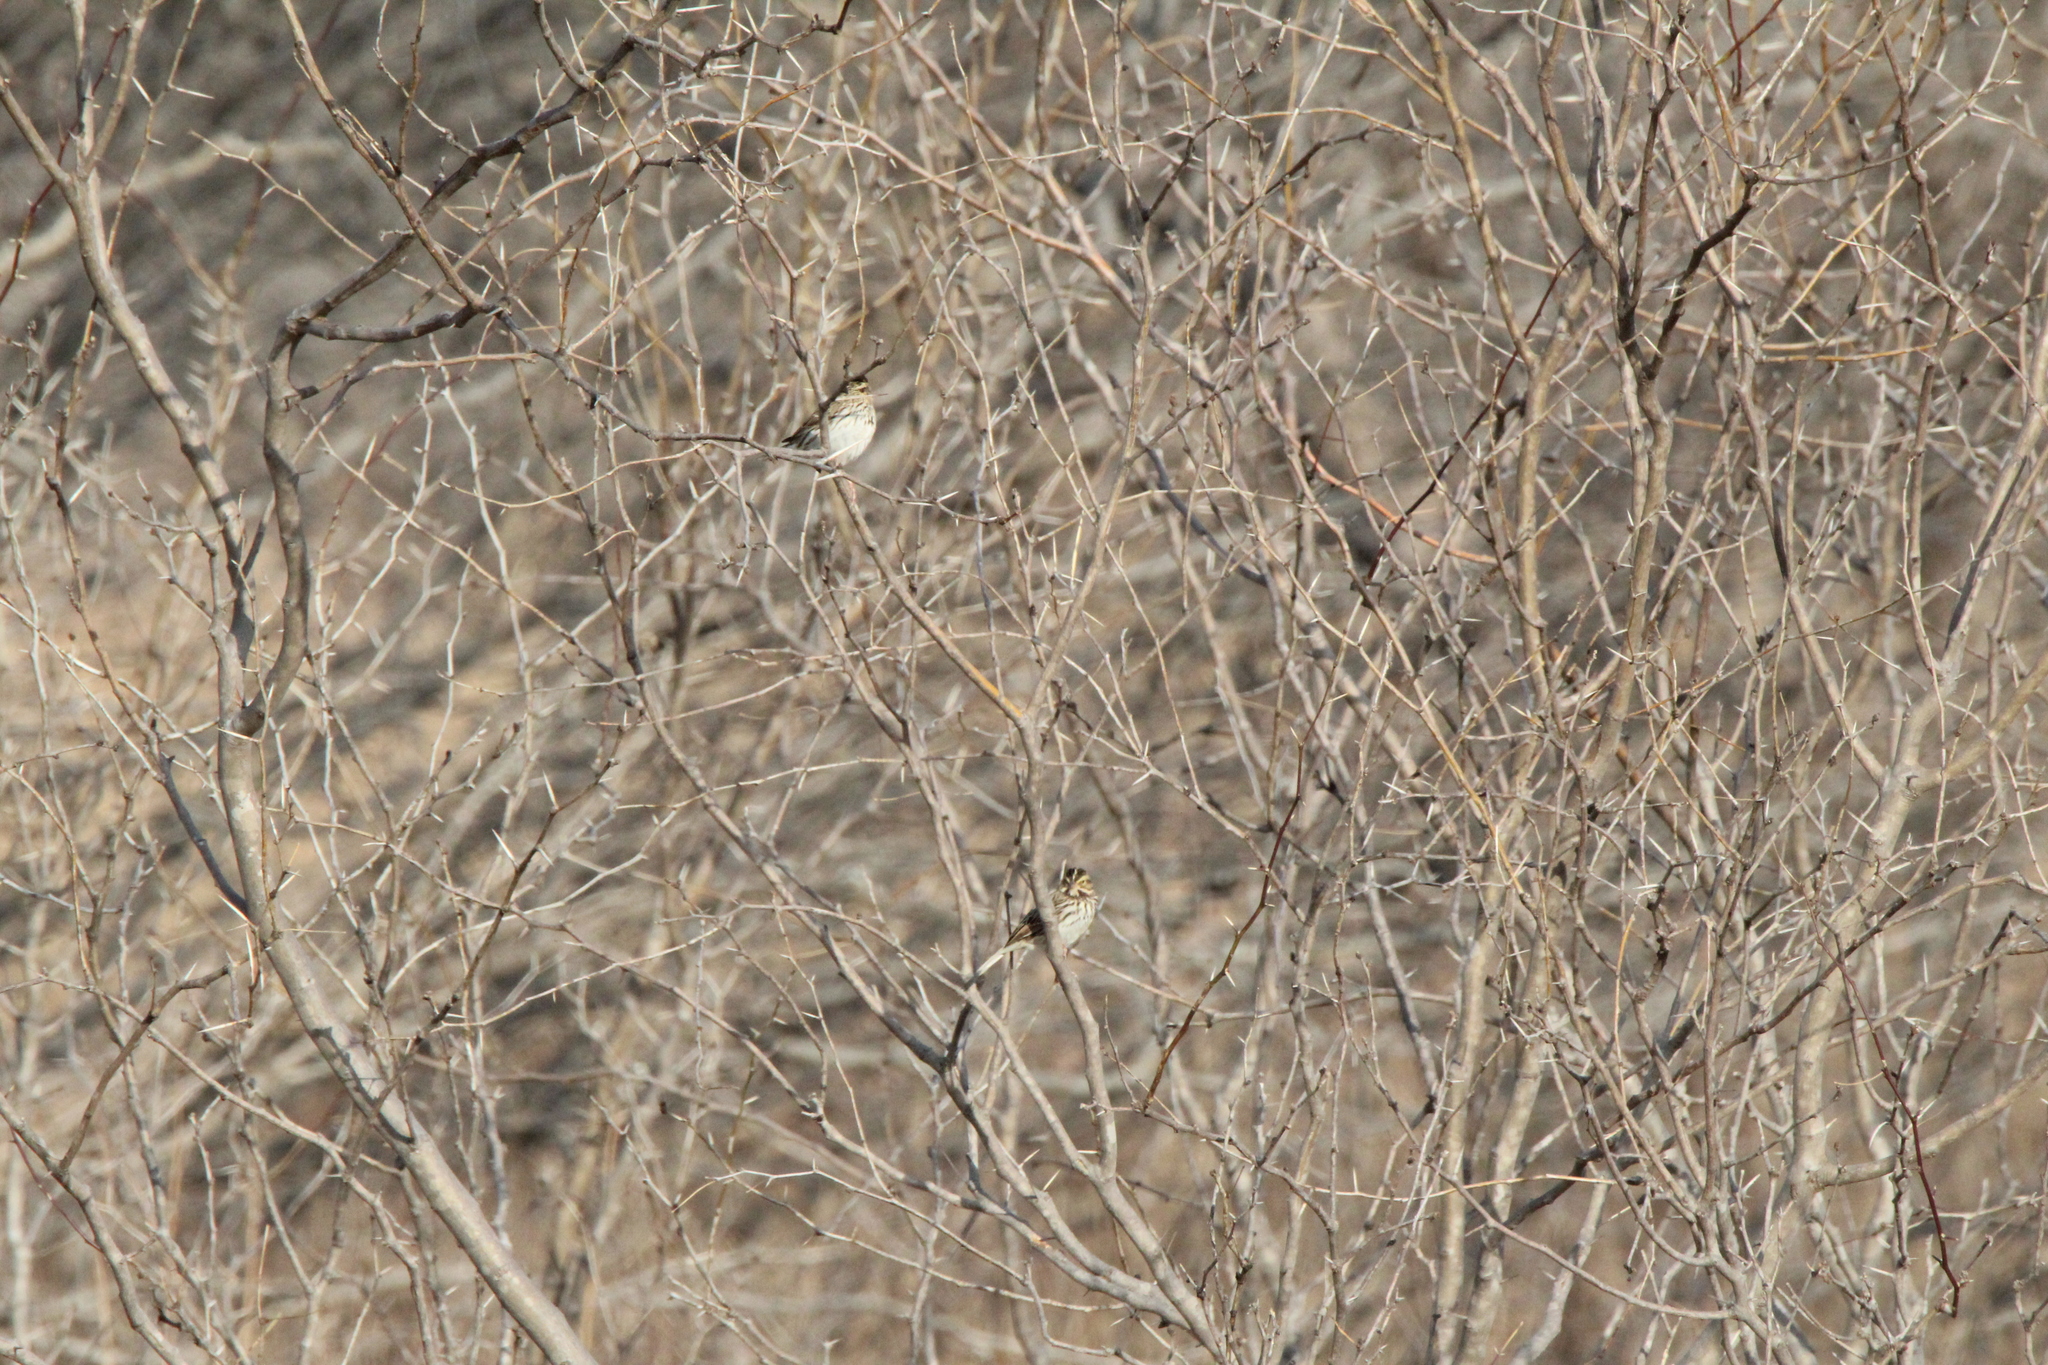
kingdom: Animalia
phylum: Chordata
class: Aves
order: Passeriformes
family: Passerellidae
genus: Passerculus
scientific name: Passerculus sandwichensis
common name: Savannah sparrow
